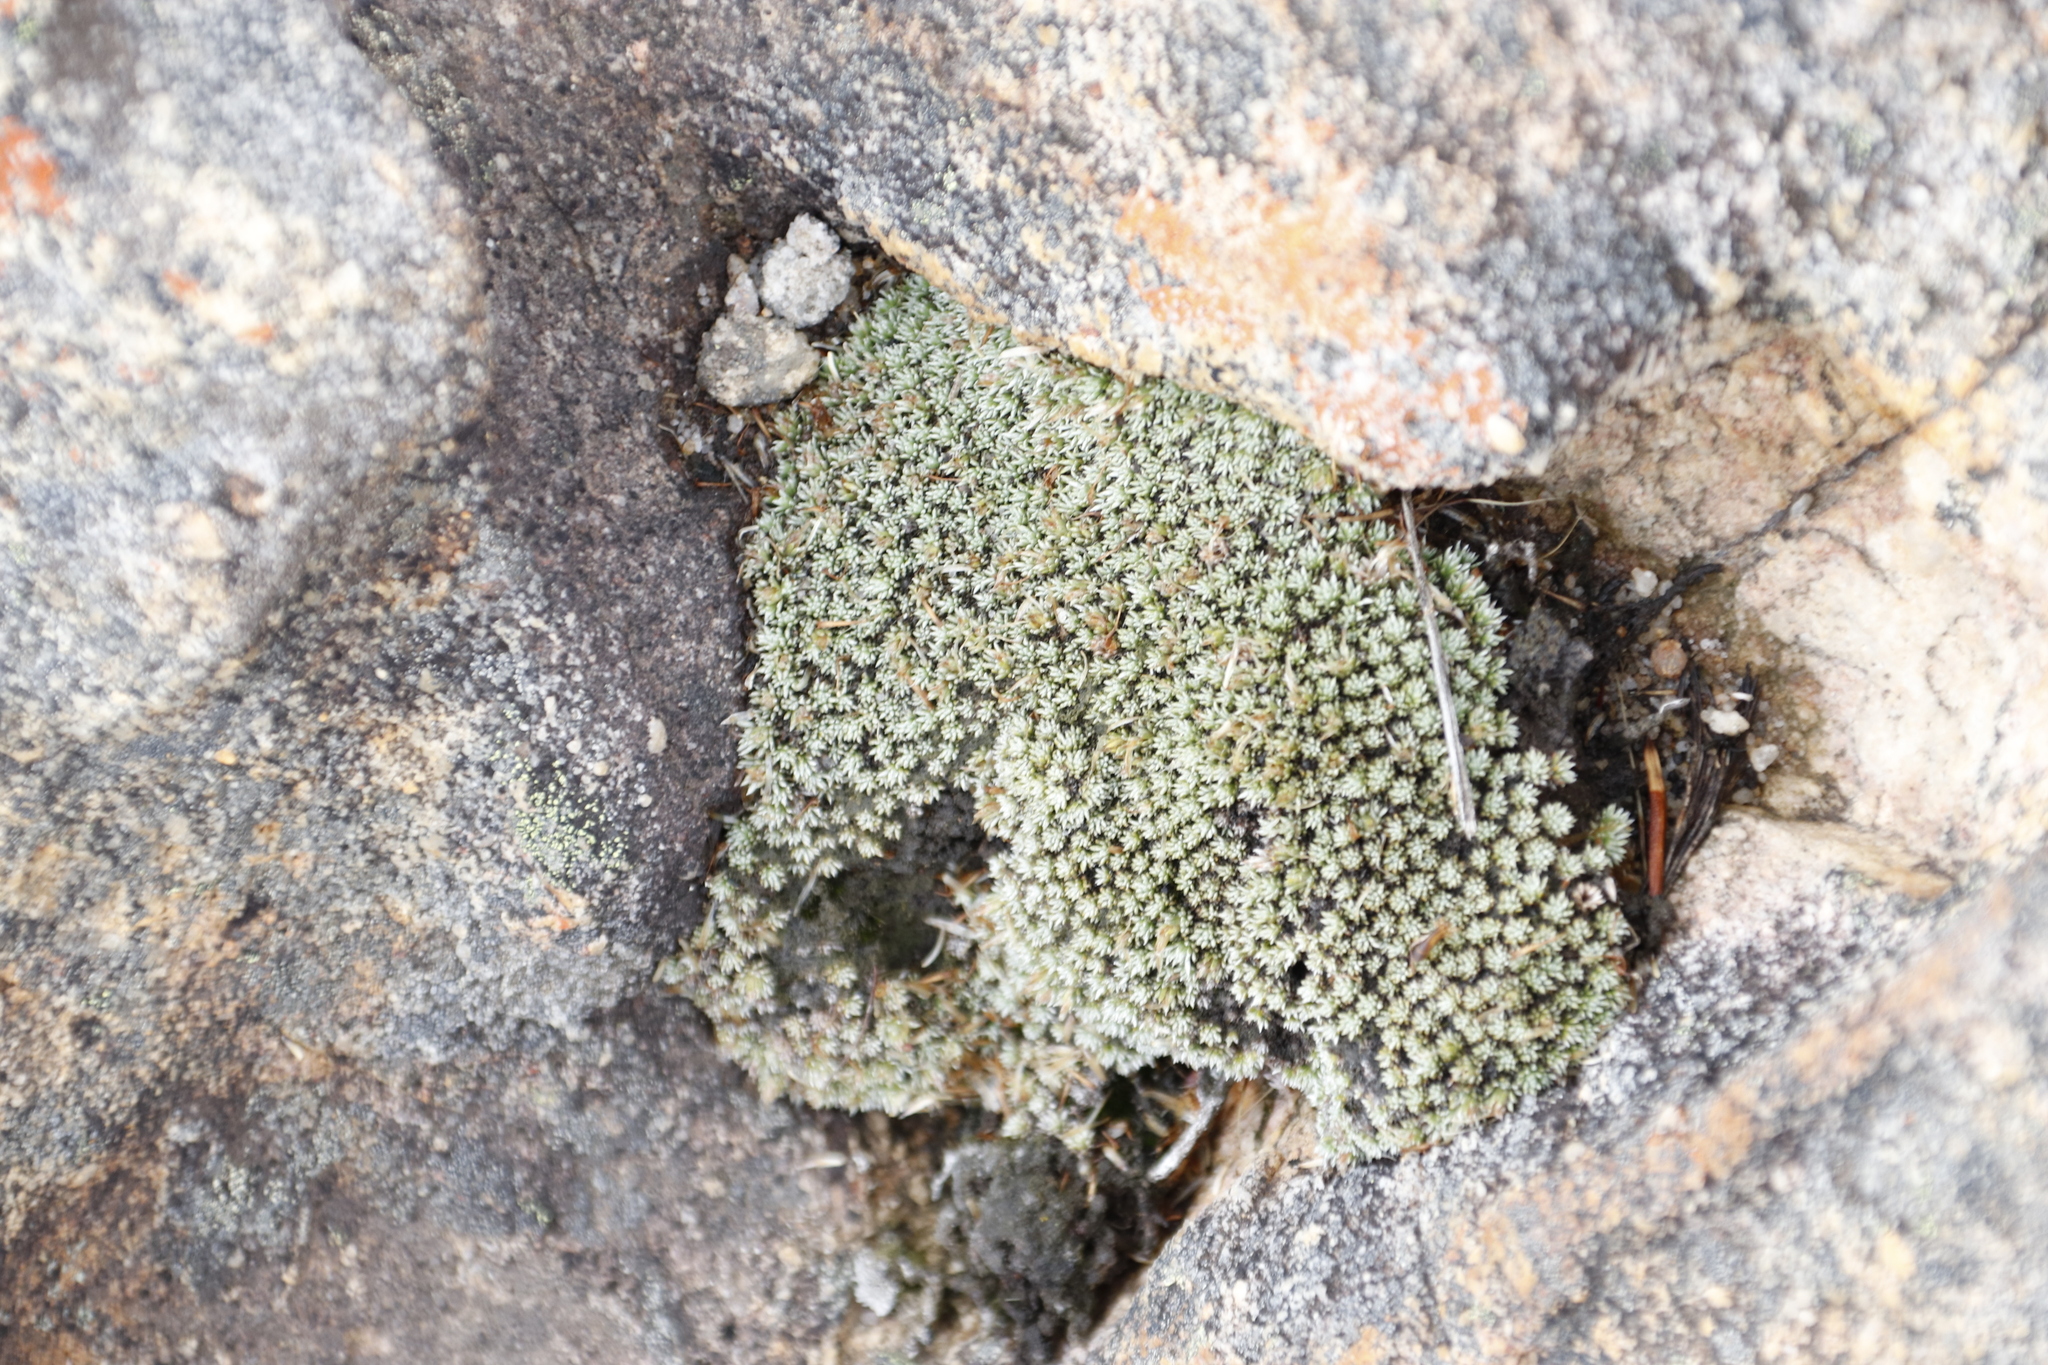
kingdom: Plantae
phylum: Tracheophyta
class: Magnoliopsida
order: Asterales
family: Asteraceae
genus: Muscosomorphe
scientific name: Muscosomorphe aretioides
